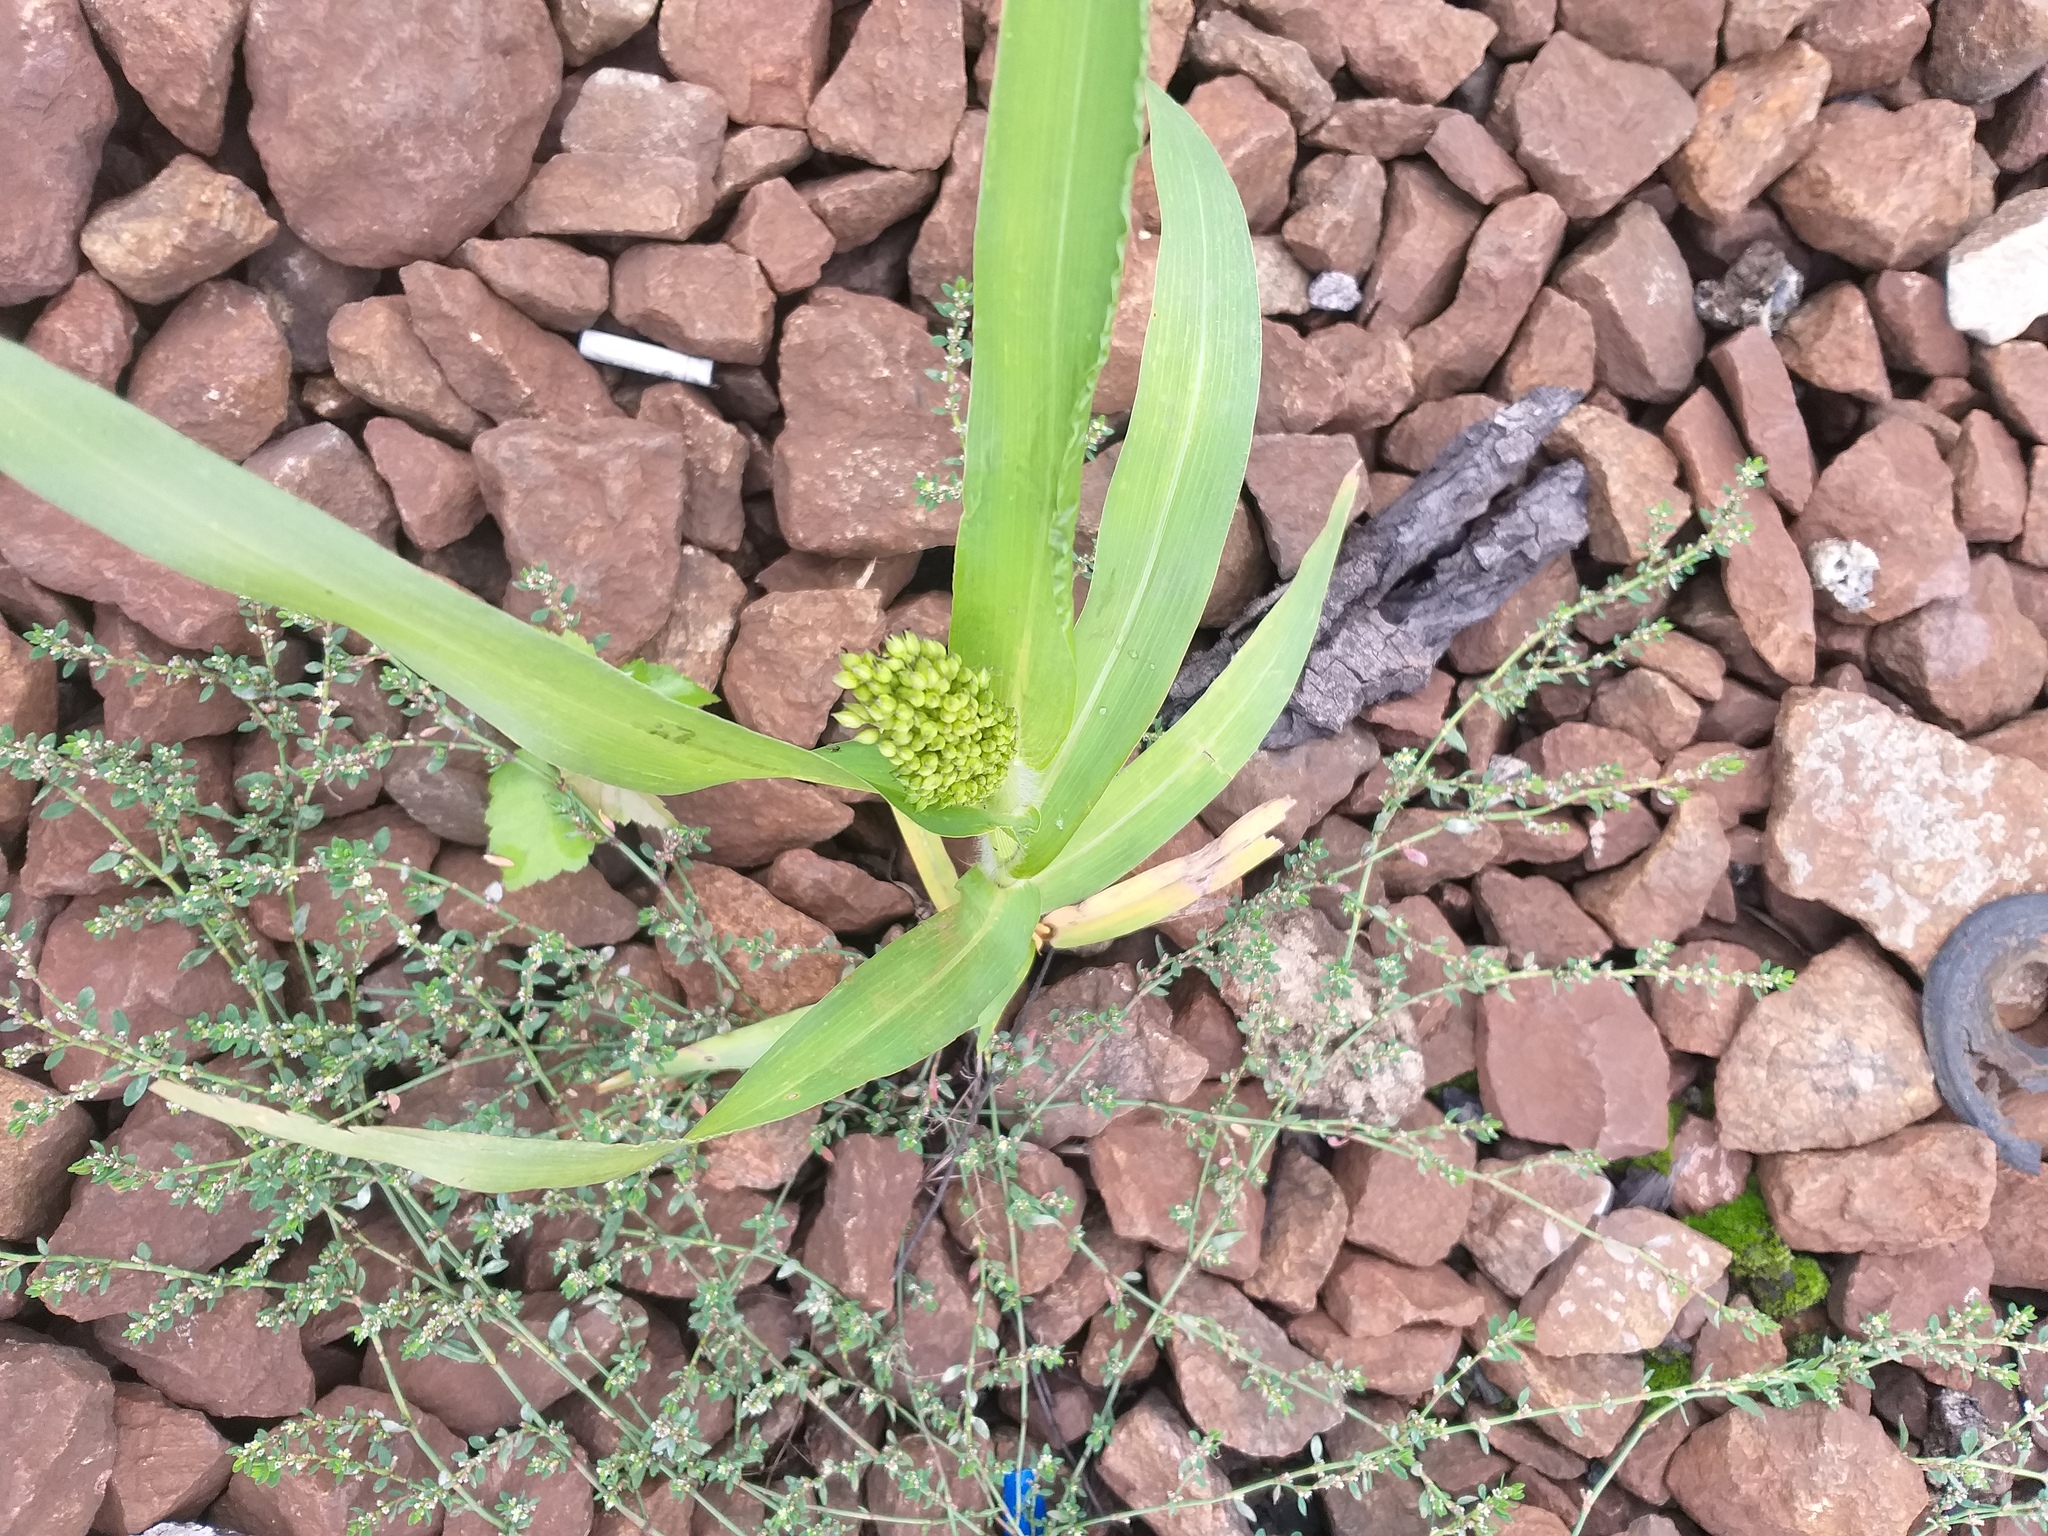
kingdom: Plantae
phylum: Tracheophyta
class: Liliopsida
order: Poales
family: Poaceae
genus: Panicum
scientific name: Panicum miliaceum
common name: Common millet
